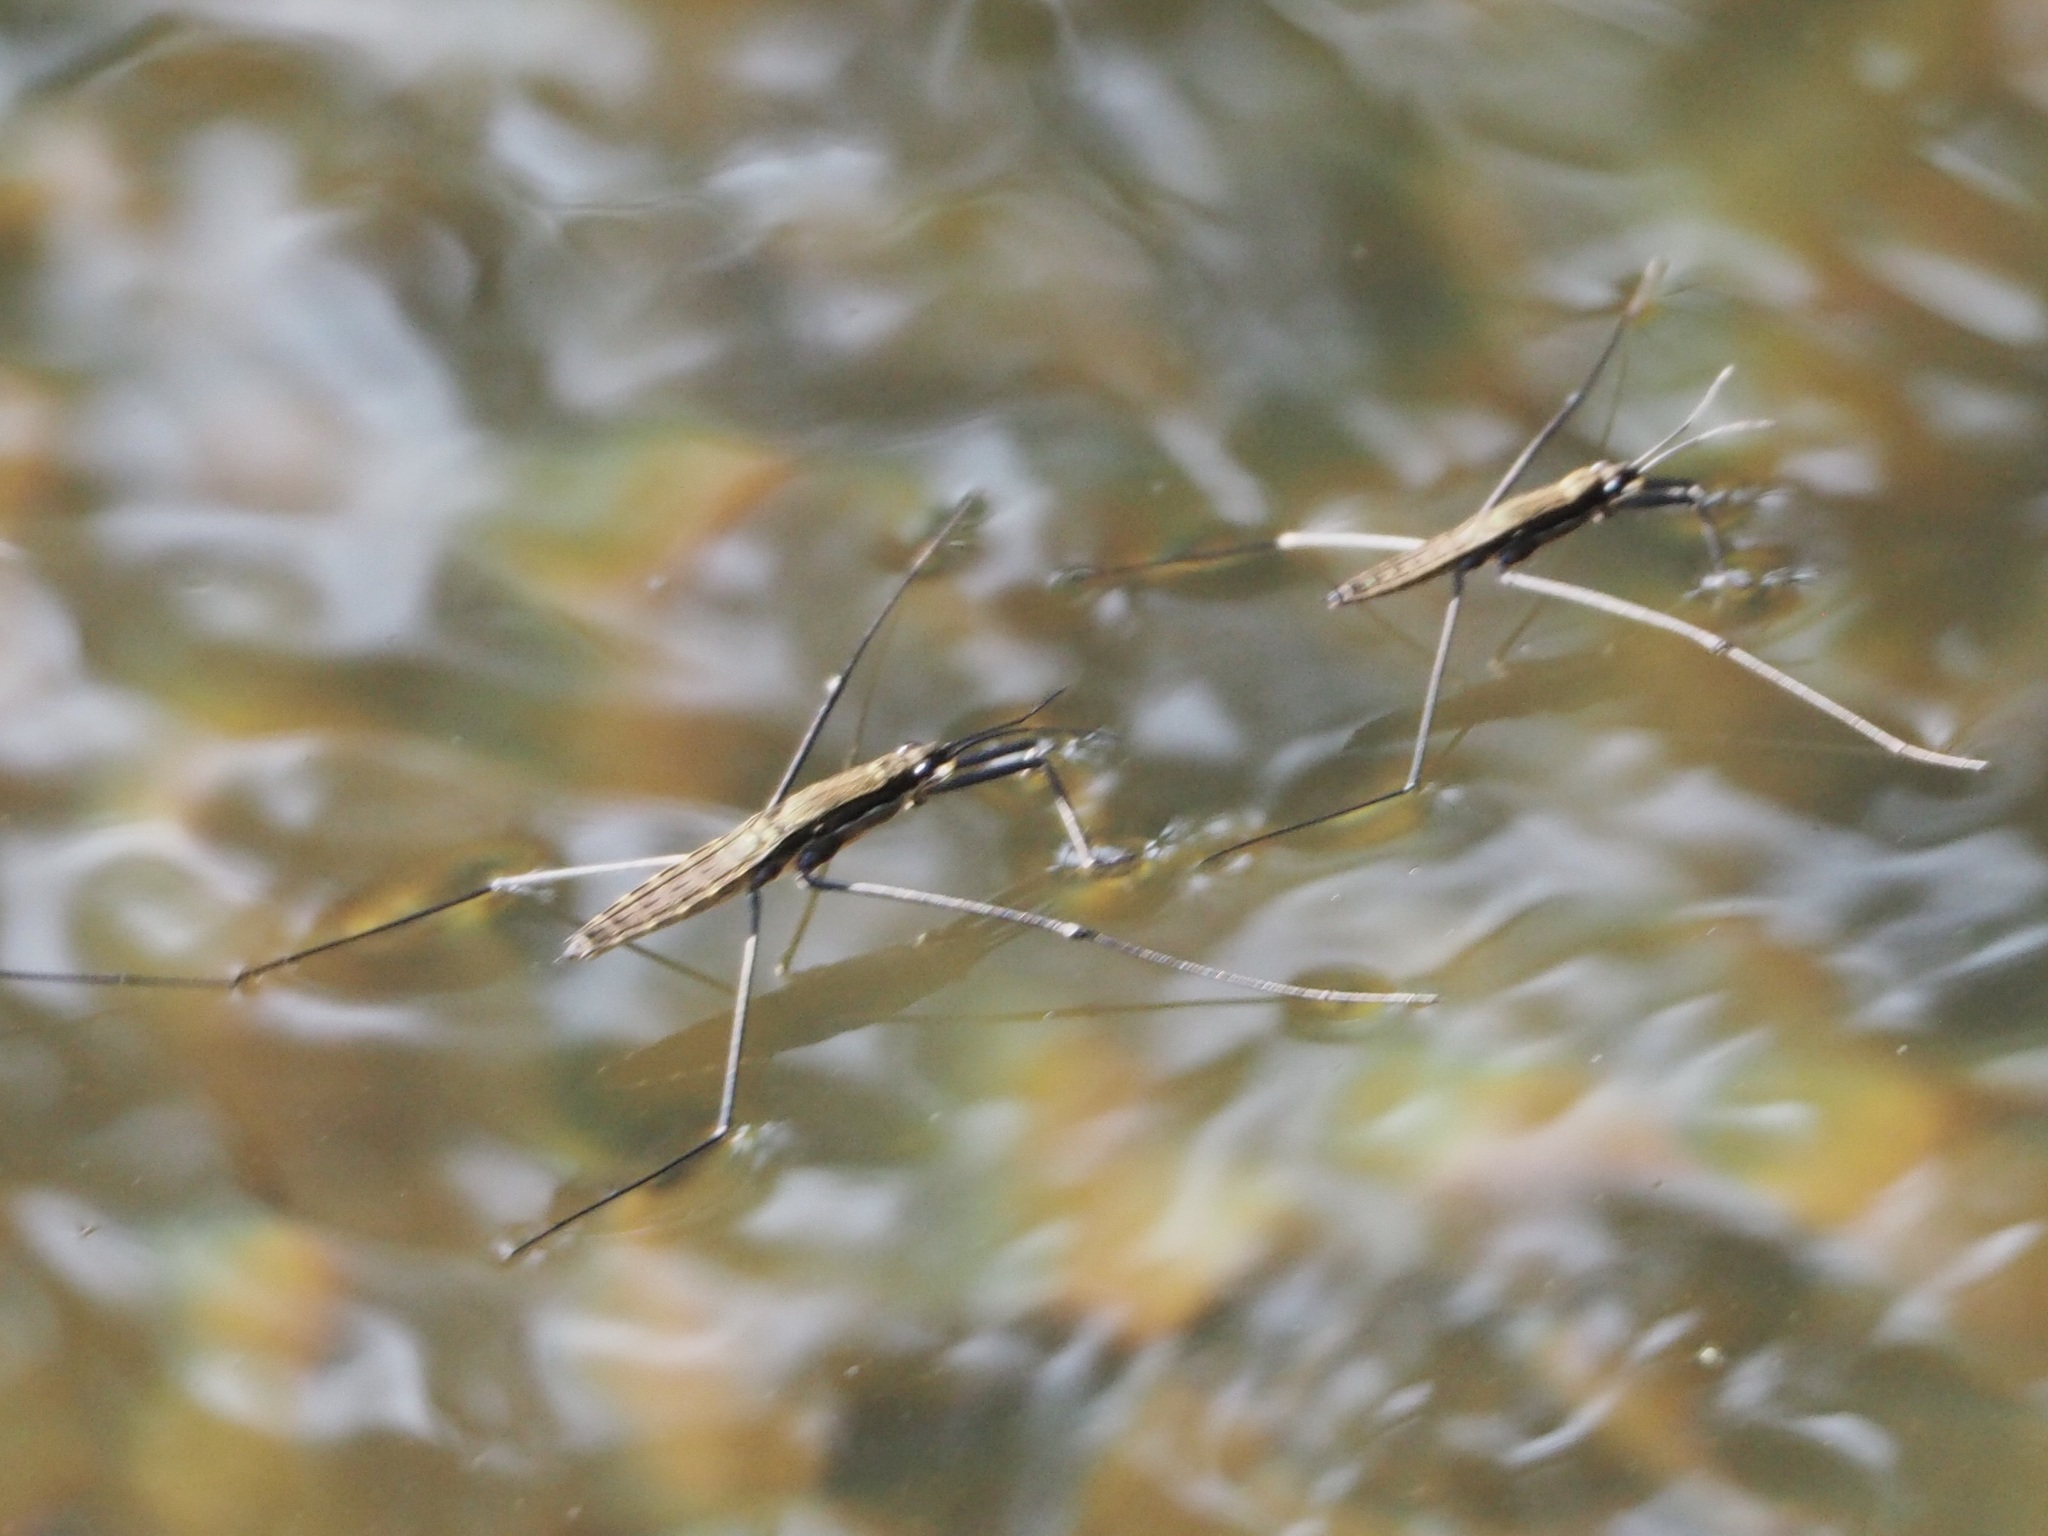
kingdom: Animalia
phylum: Arthropoda
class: Insecta
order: Hemiptera
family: Gerridae
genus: Aquarius
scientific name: Aquarius najas
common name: River skater
